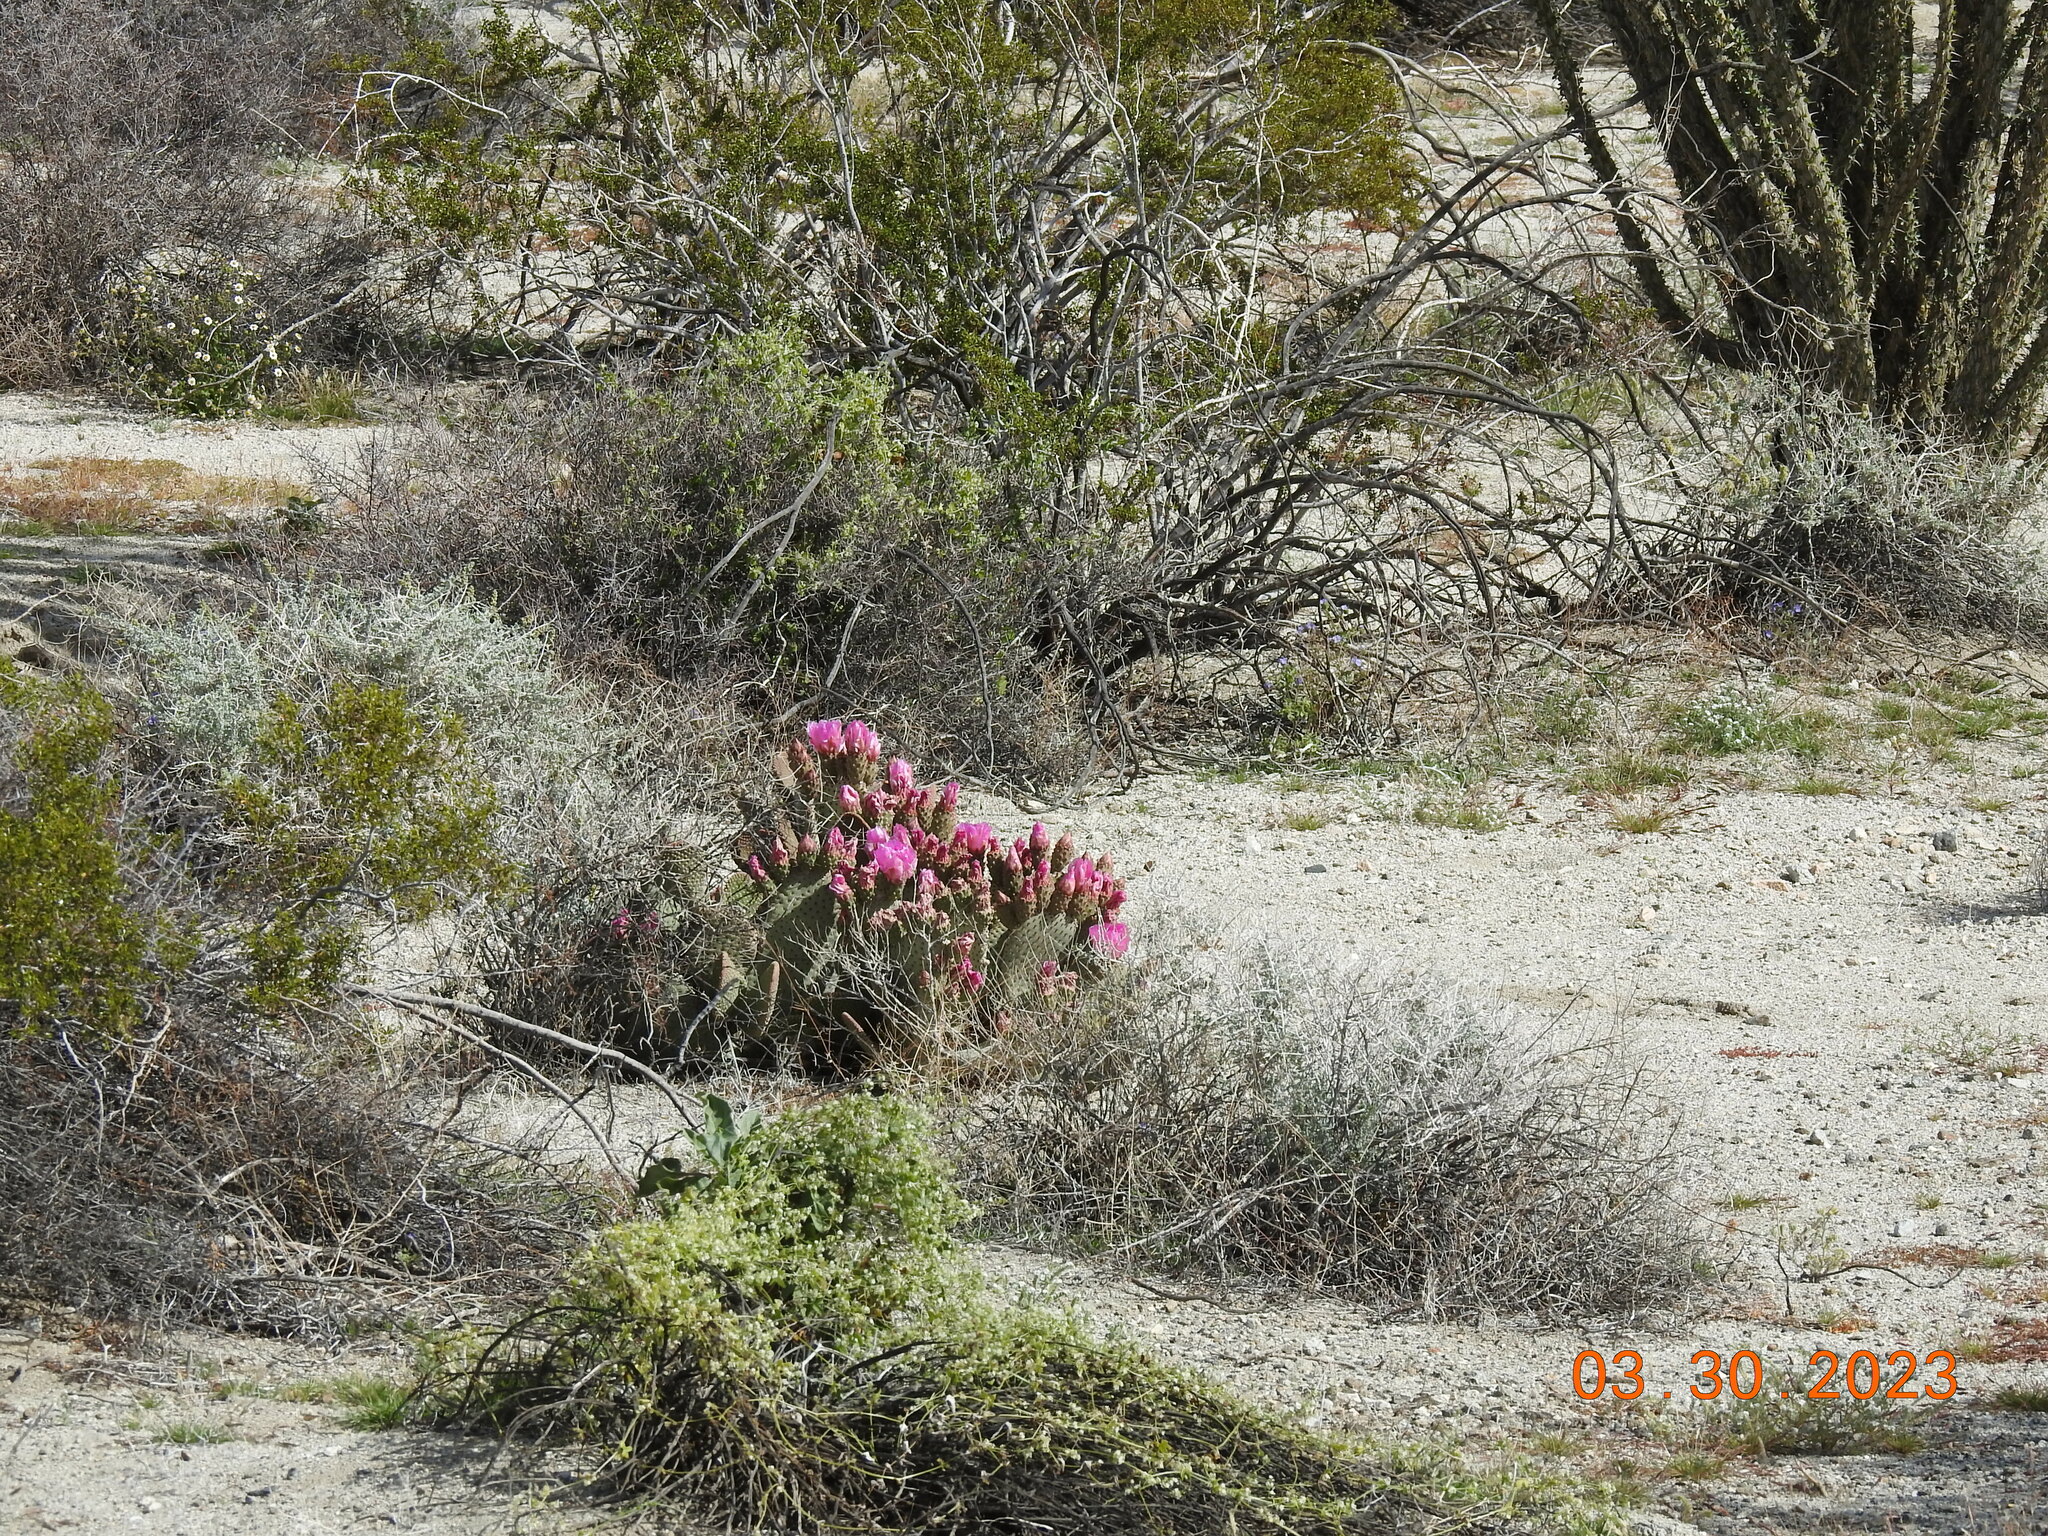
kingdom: Plantae
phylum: Tracheophyta
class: Magnoliopsida
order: Caryophyllales
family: Cactaceae
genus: Opuntia
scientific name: Opuntia basilaris
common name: Beavertail prickly-pear
